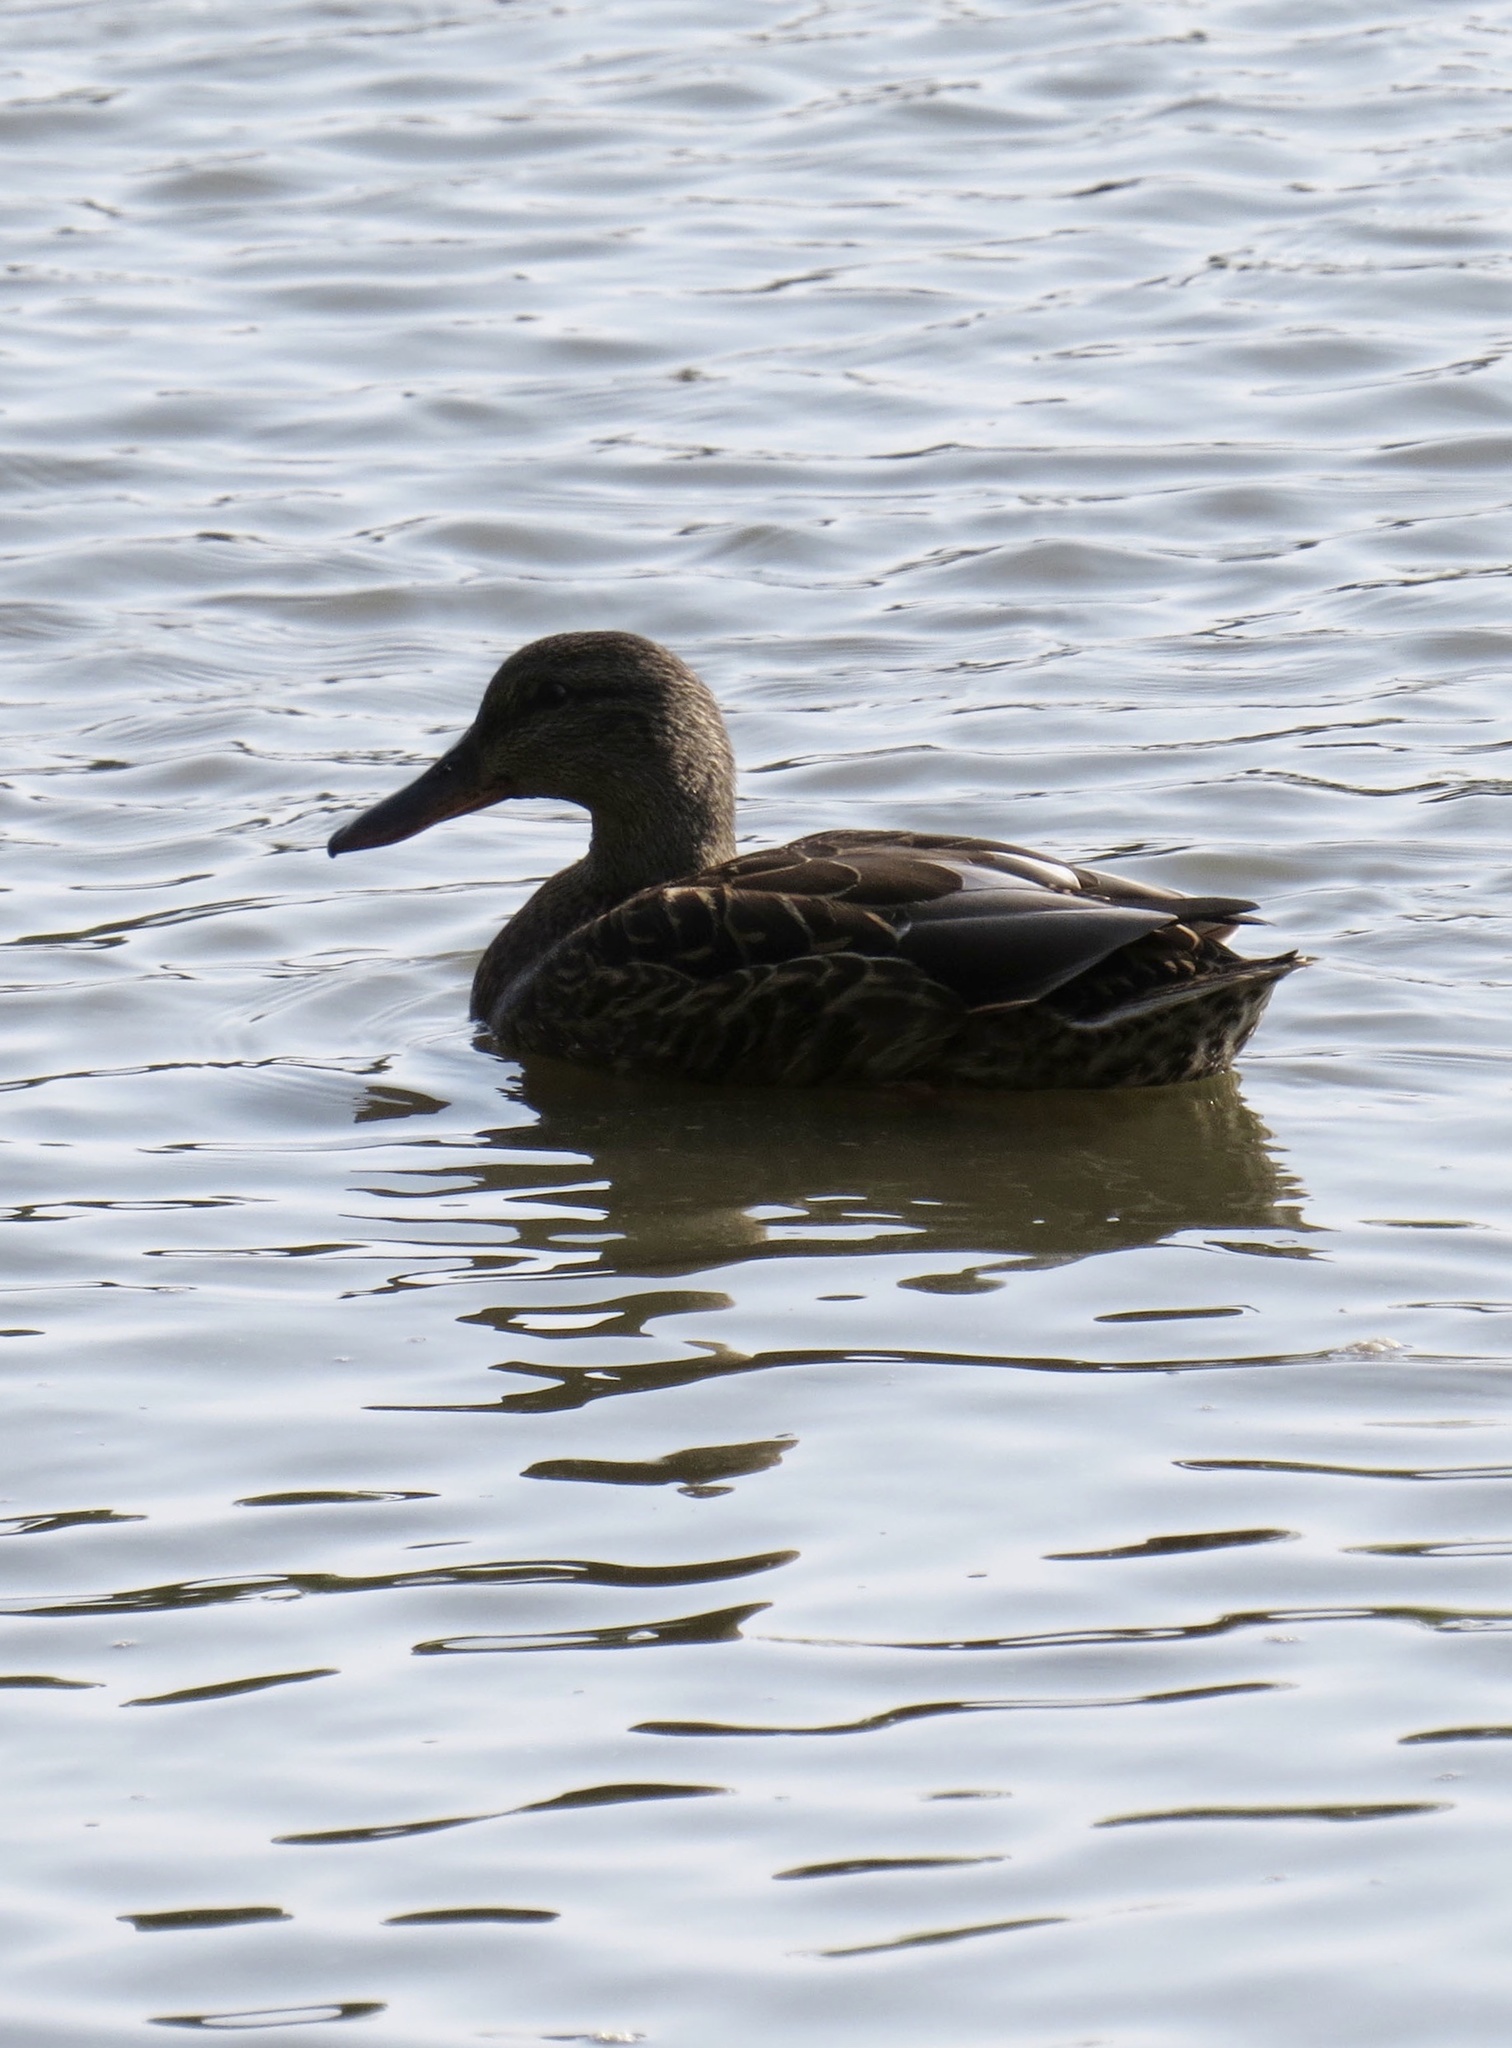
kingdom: Animalia
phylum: Chordata
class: Aves
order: Anseriformes
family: Anatidae
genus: Anas
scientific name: Anas platyrhynchos
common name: Mallard
